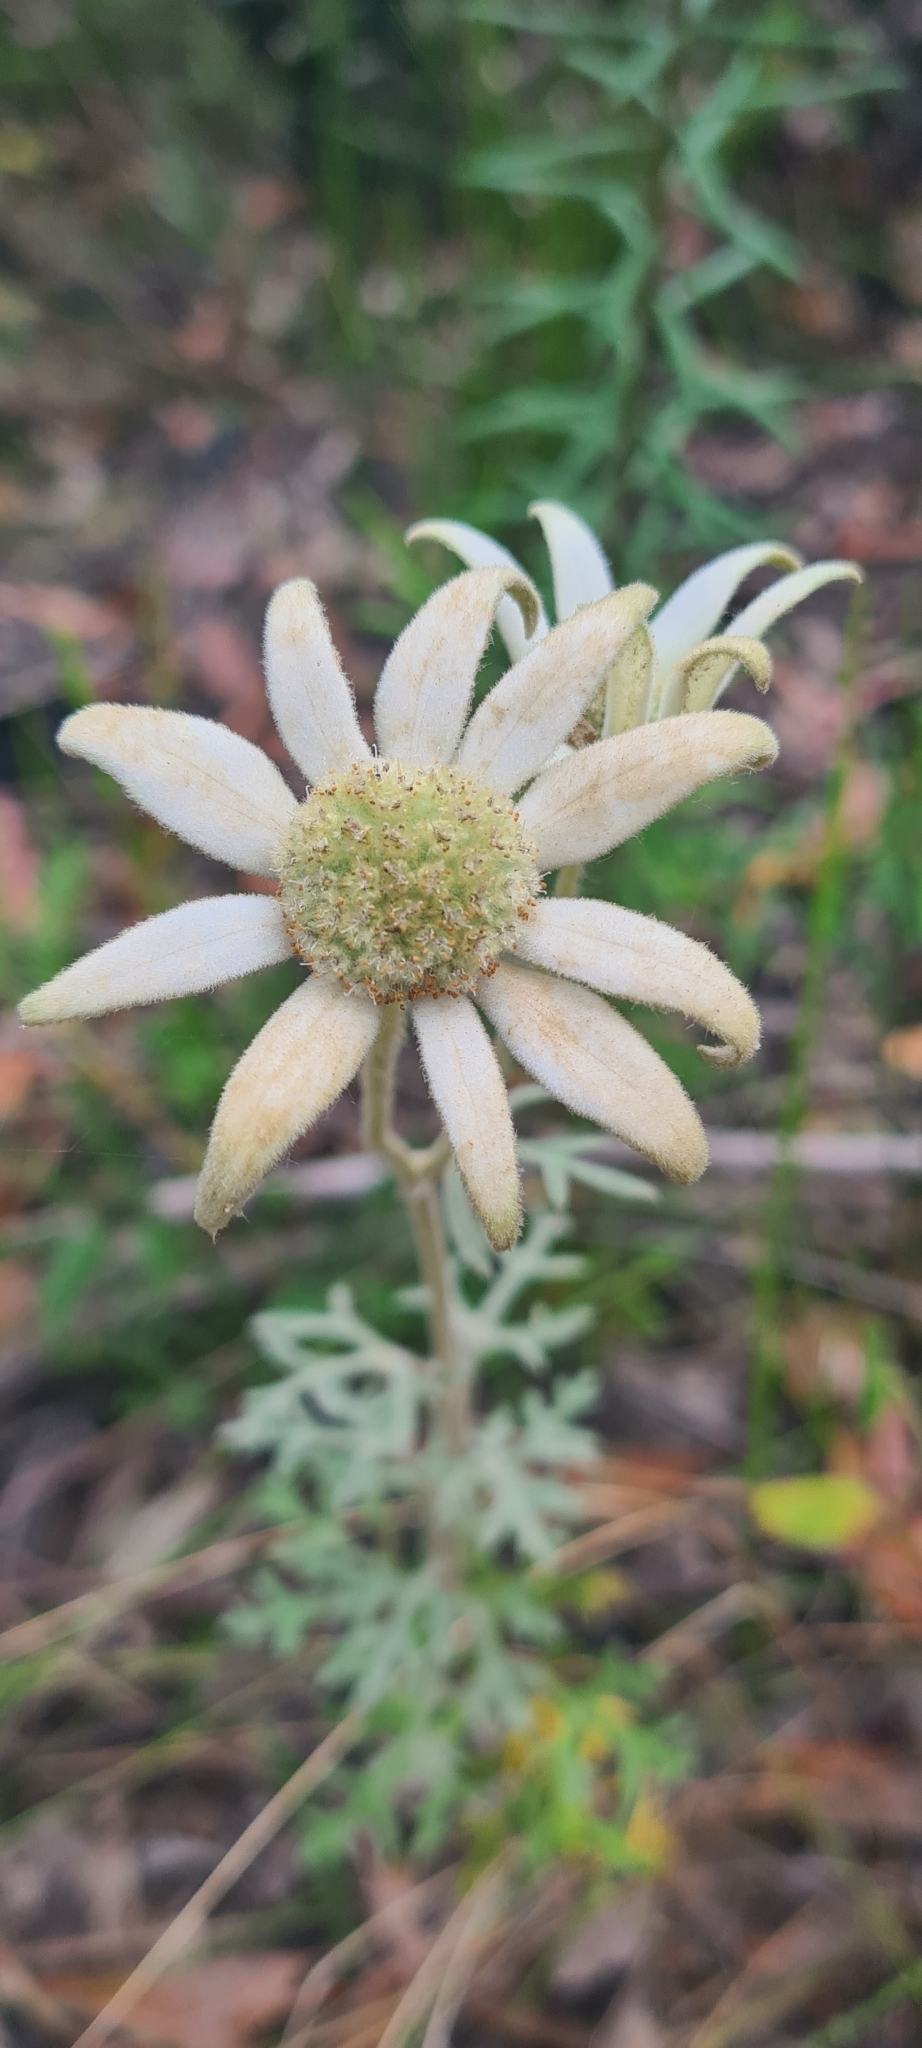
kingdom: Plantae
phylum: Tracheophyta
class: Magnoliopsida
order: Apiales
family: Apiaceae
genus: Actinotus
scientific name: Actinotus helianthi
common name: Flannel-flower
